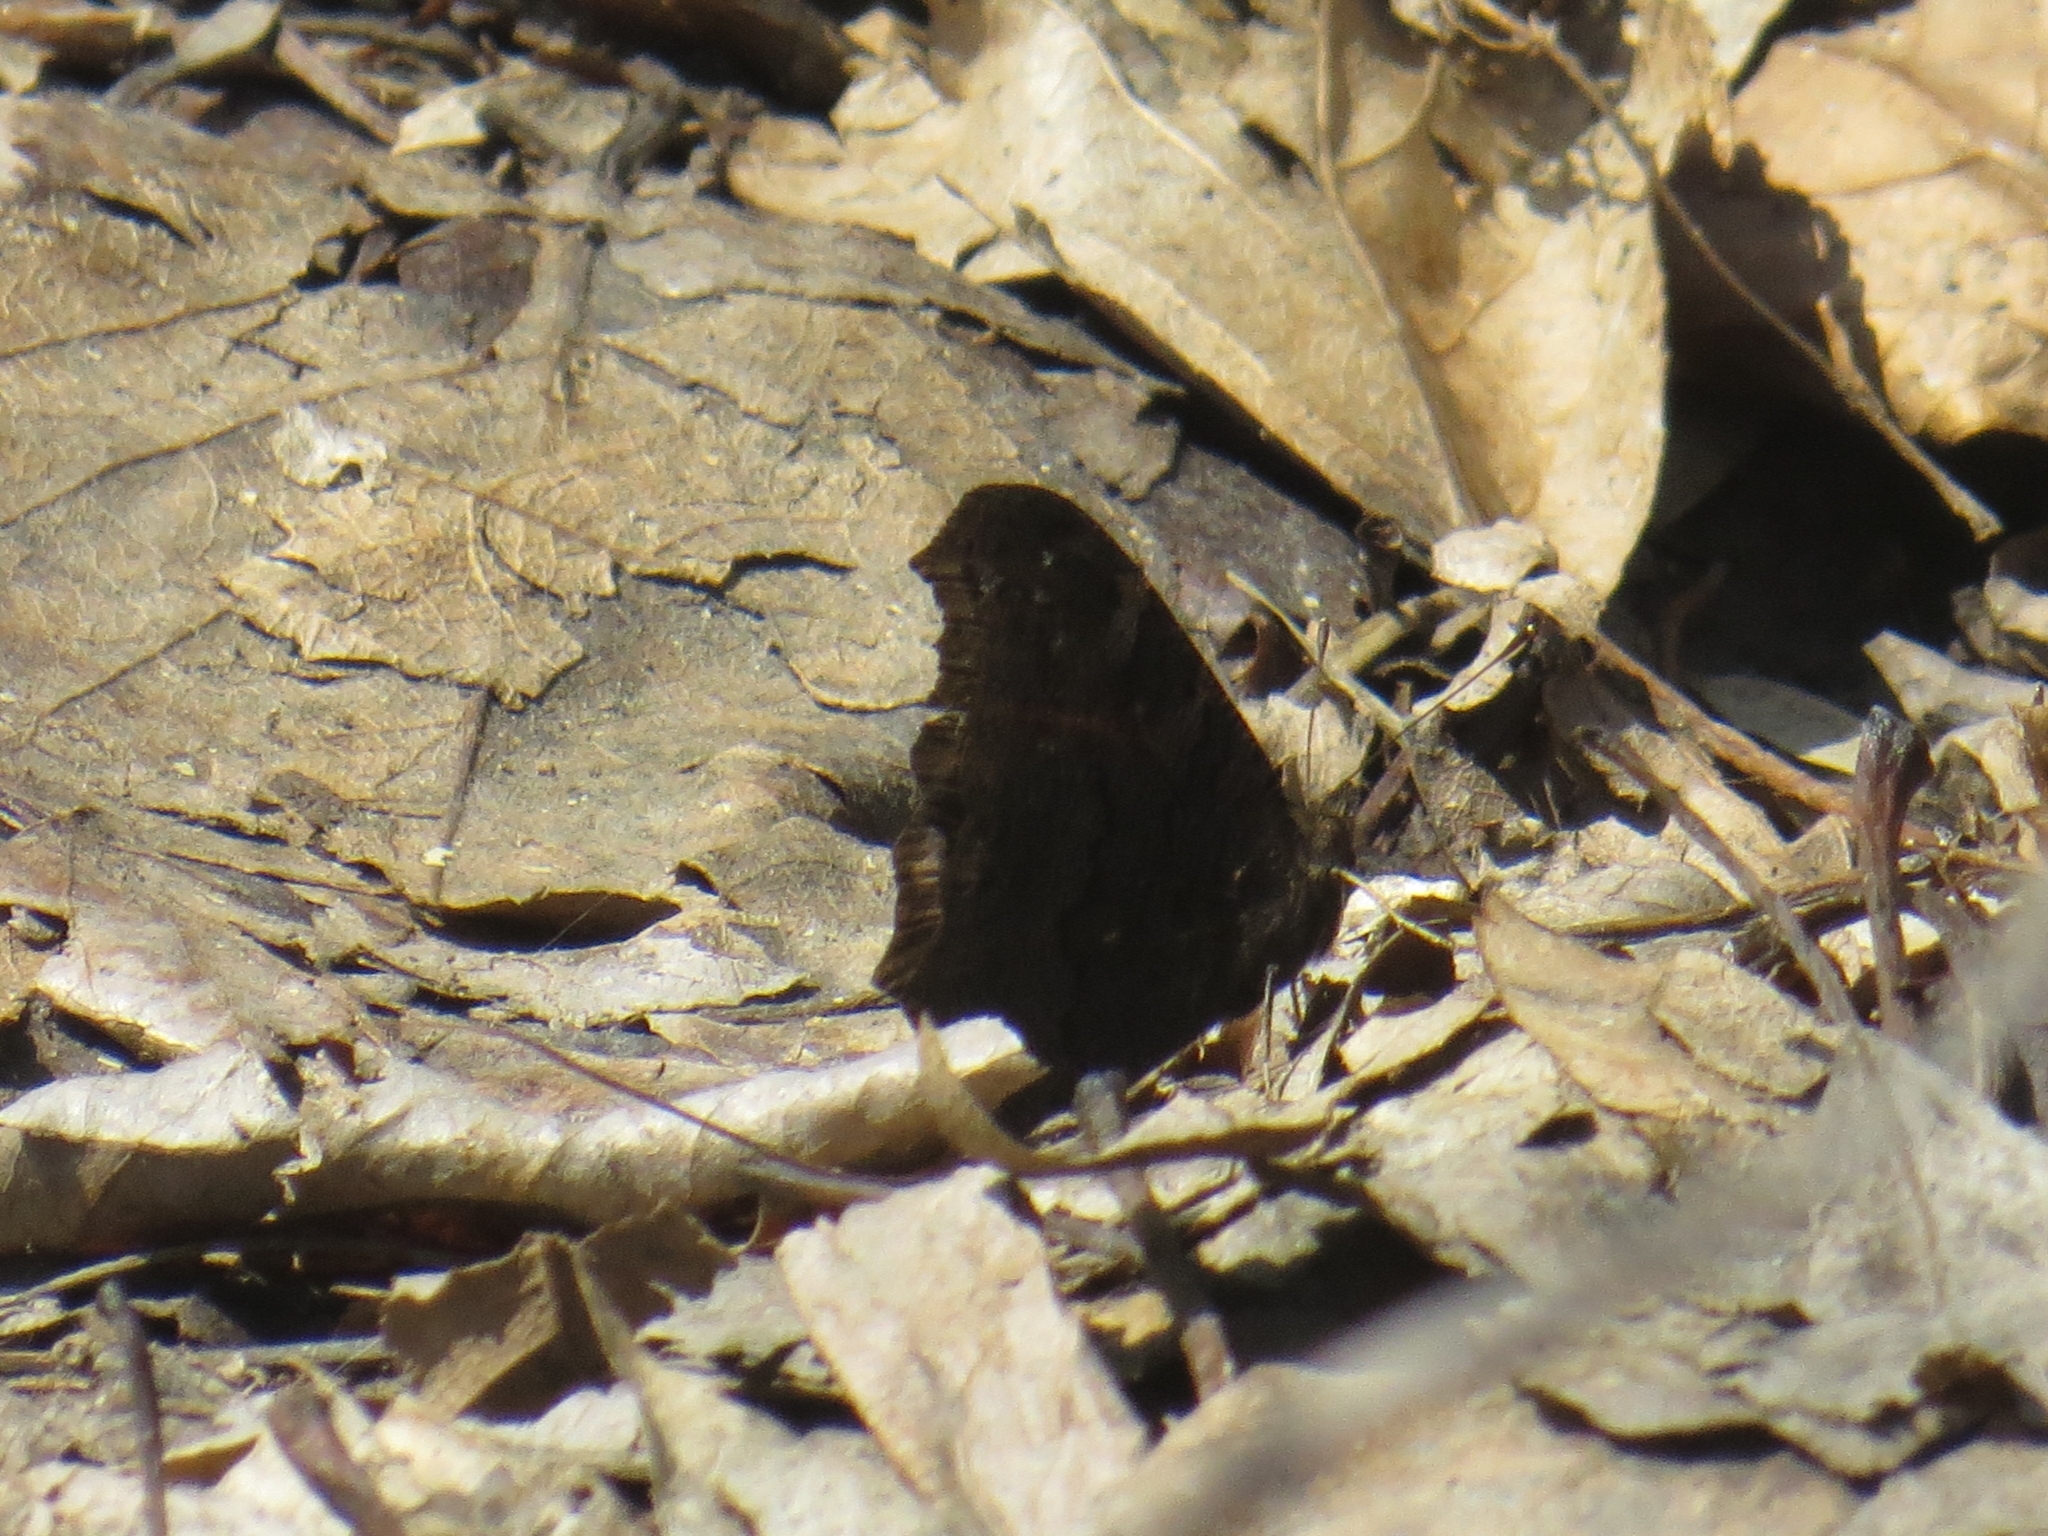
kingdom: Animalia
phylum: Arthropoda
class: Insecta
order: Lepidoptera
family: Nymphalidae
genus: Aglais
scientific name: Aglais io
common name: Peacock
